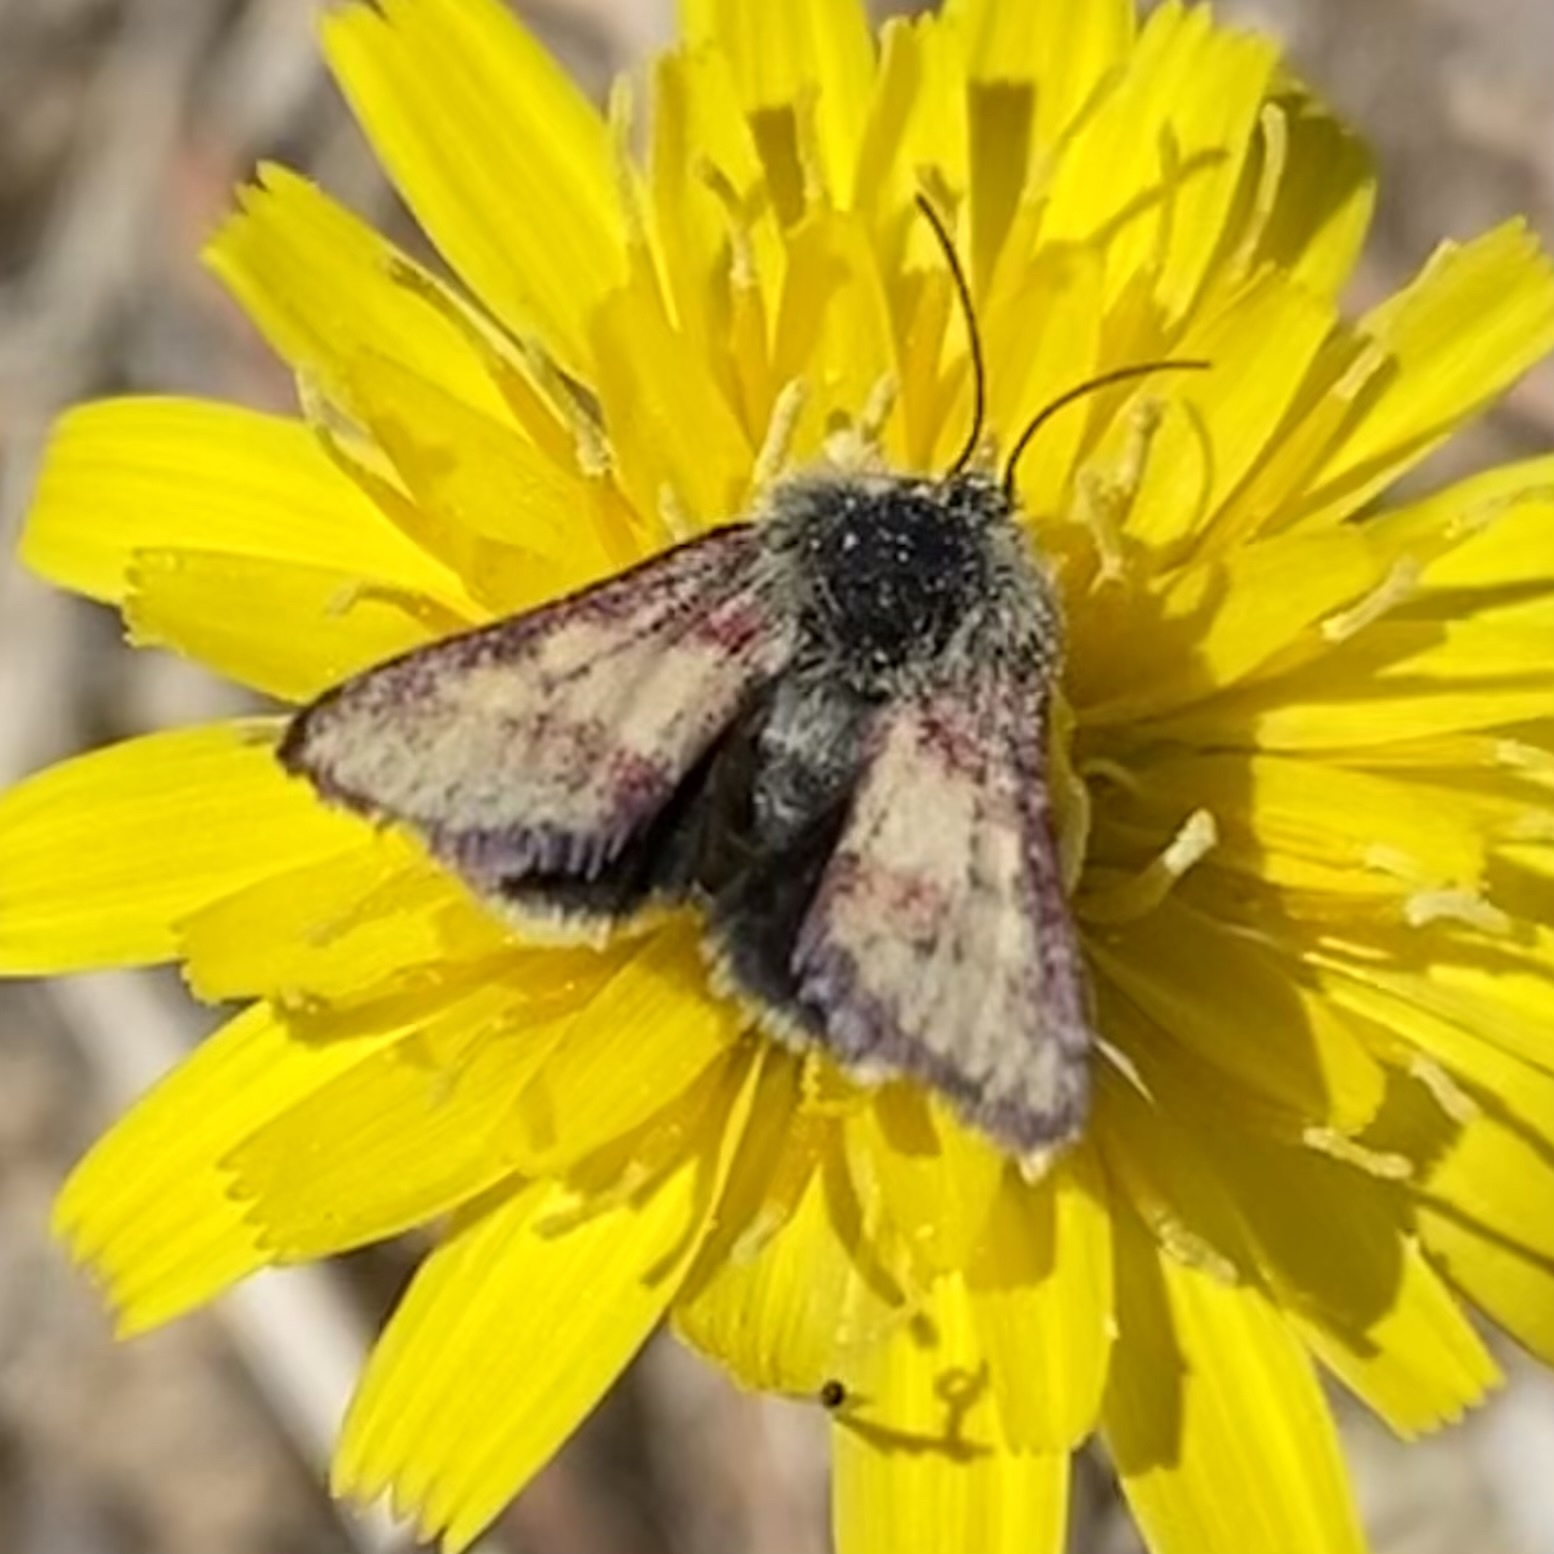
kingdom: Animalia
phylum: Arthropoda
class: Insecta
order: Lepidoptera
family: Noctuidae
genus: Heliolonche
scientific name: Heliolonche pictipennis
